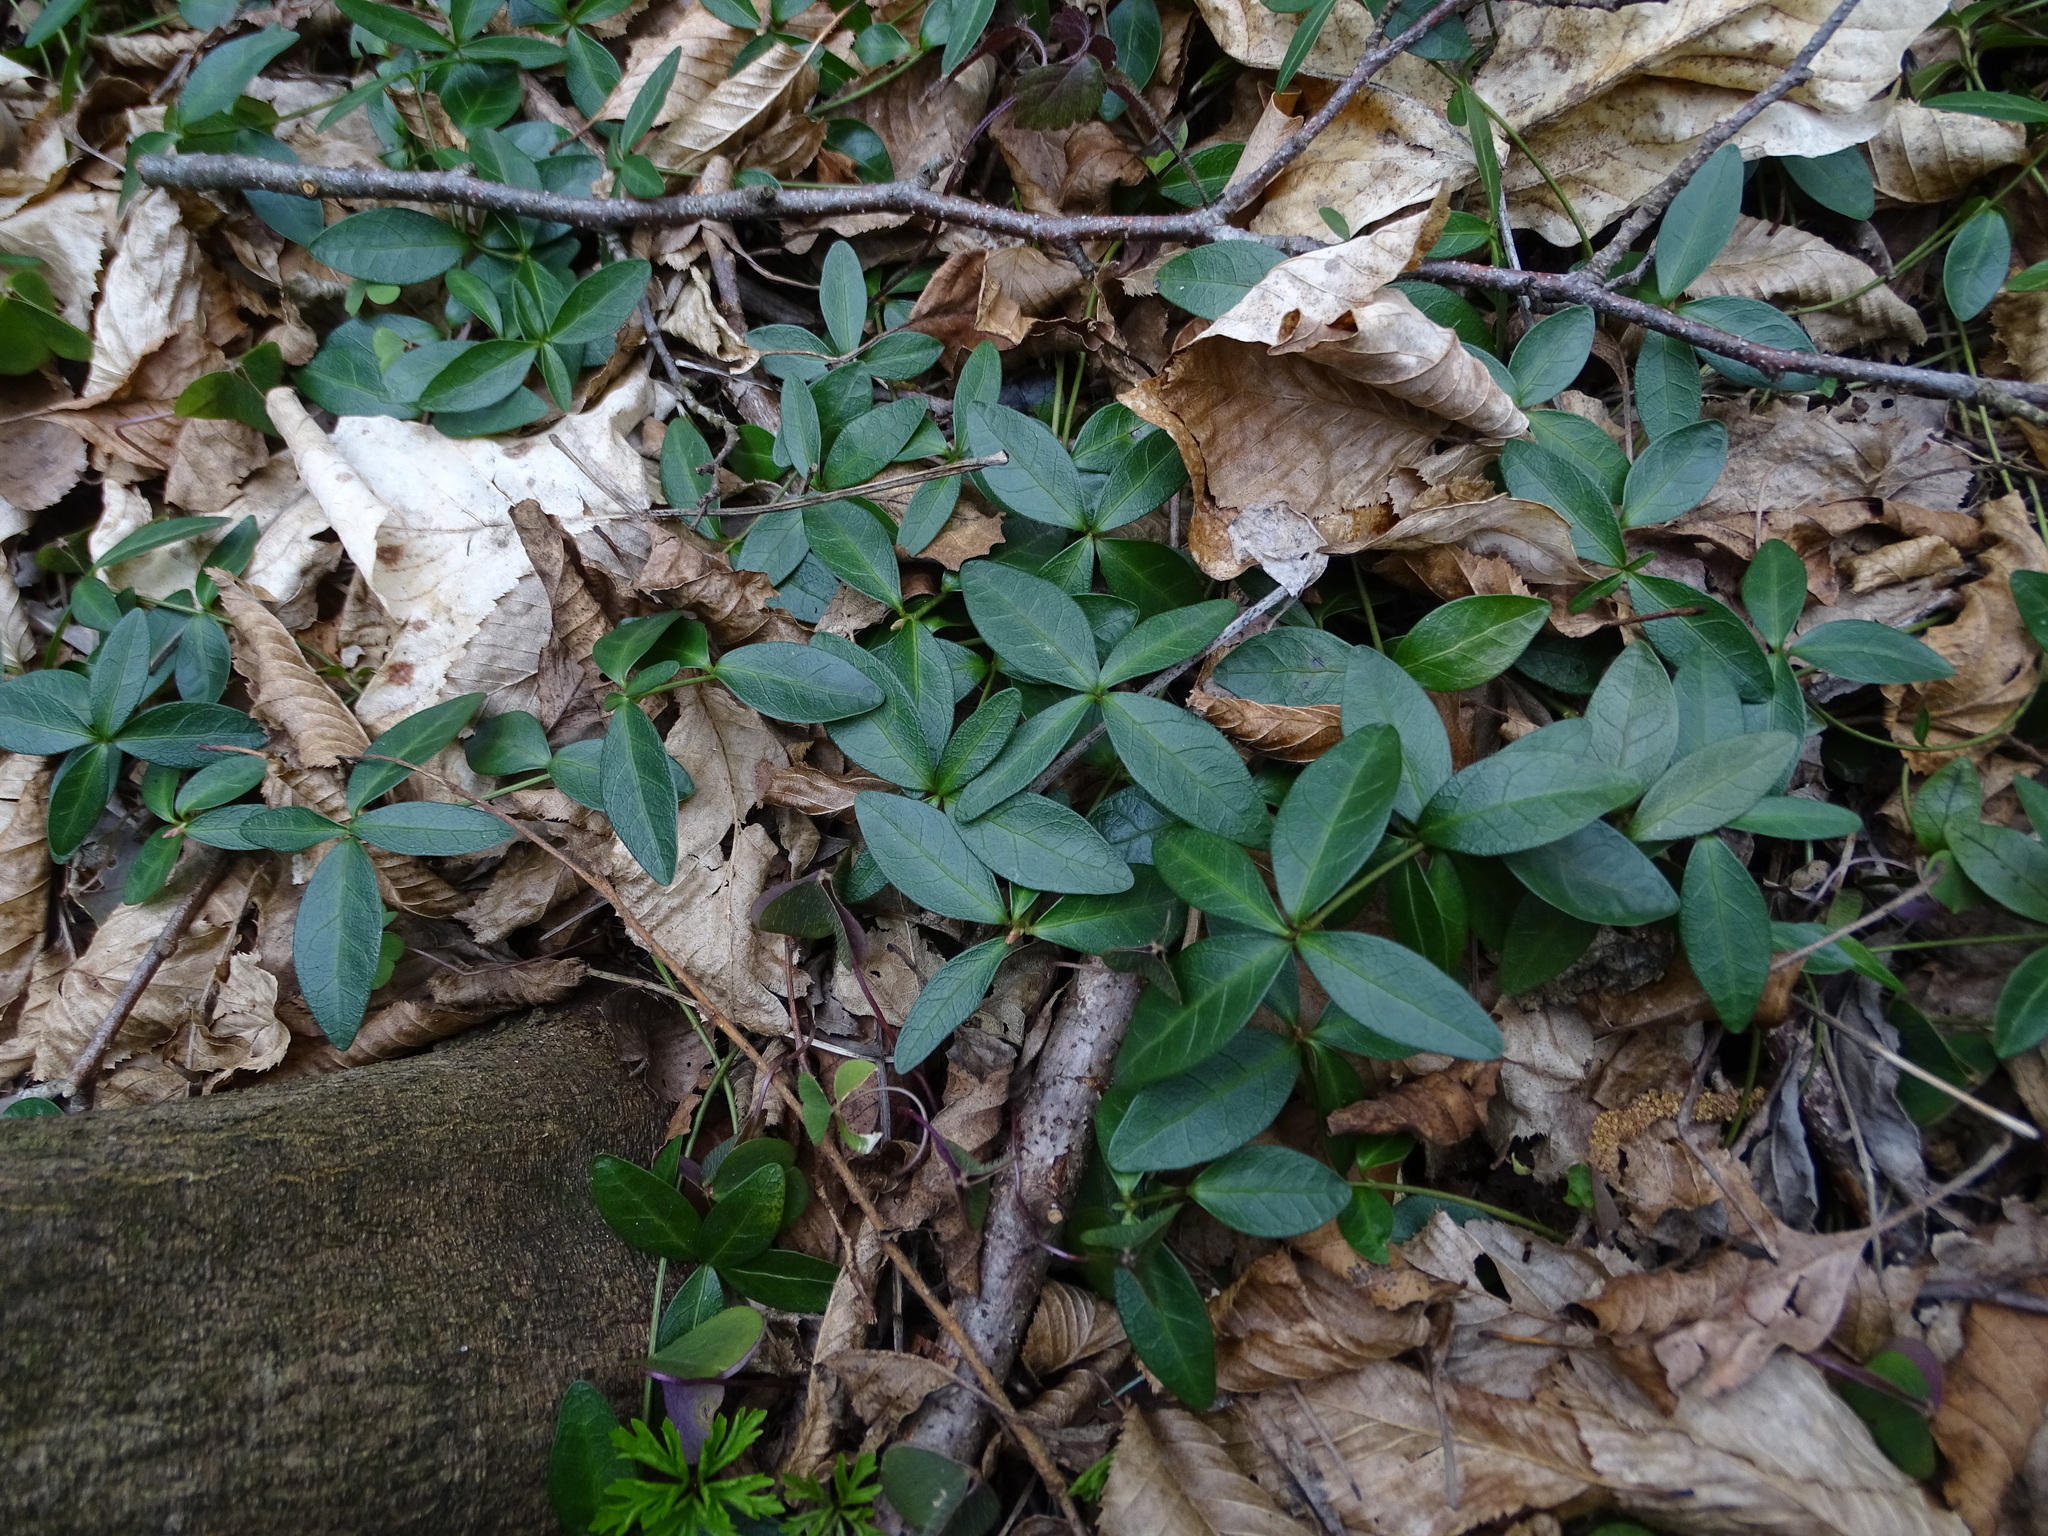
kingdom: Plantae
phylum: Tracheophyta
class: Magnoliopsida
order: Gentianales
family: Apocynaceae
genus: Vinca
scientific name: Vinca minor
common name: Lesser periwinkle
